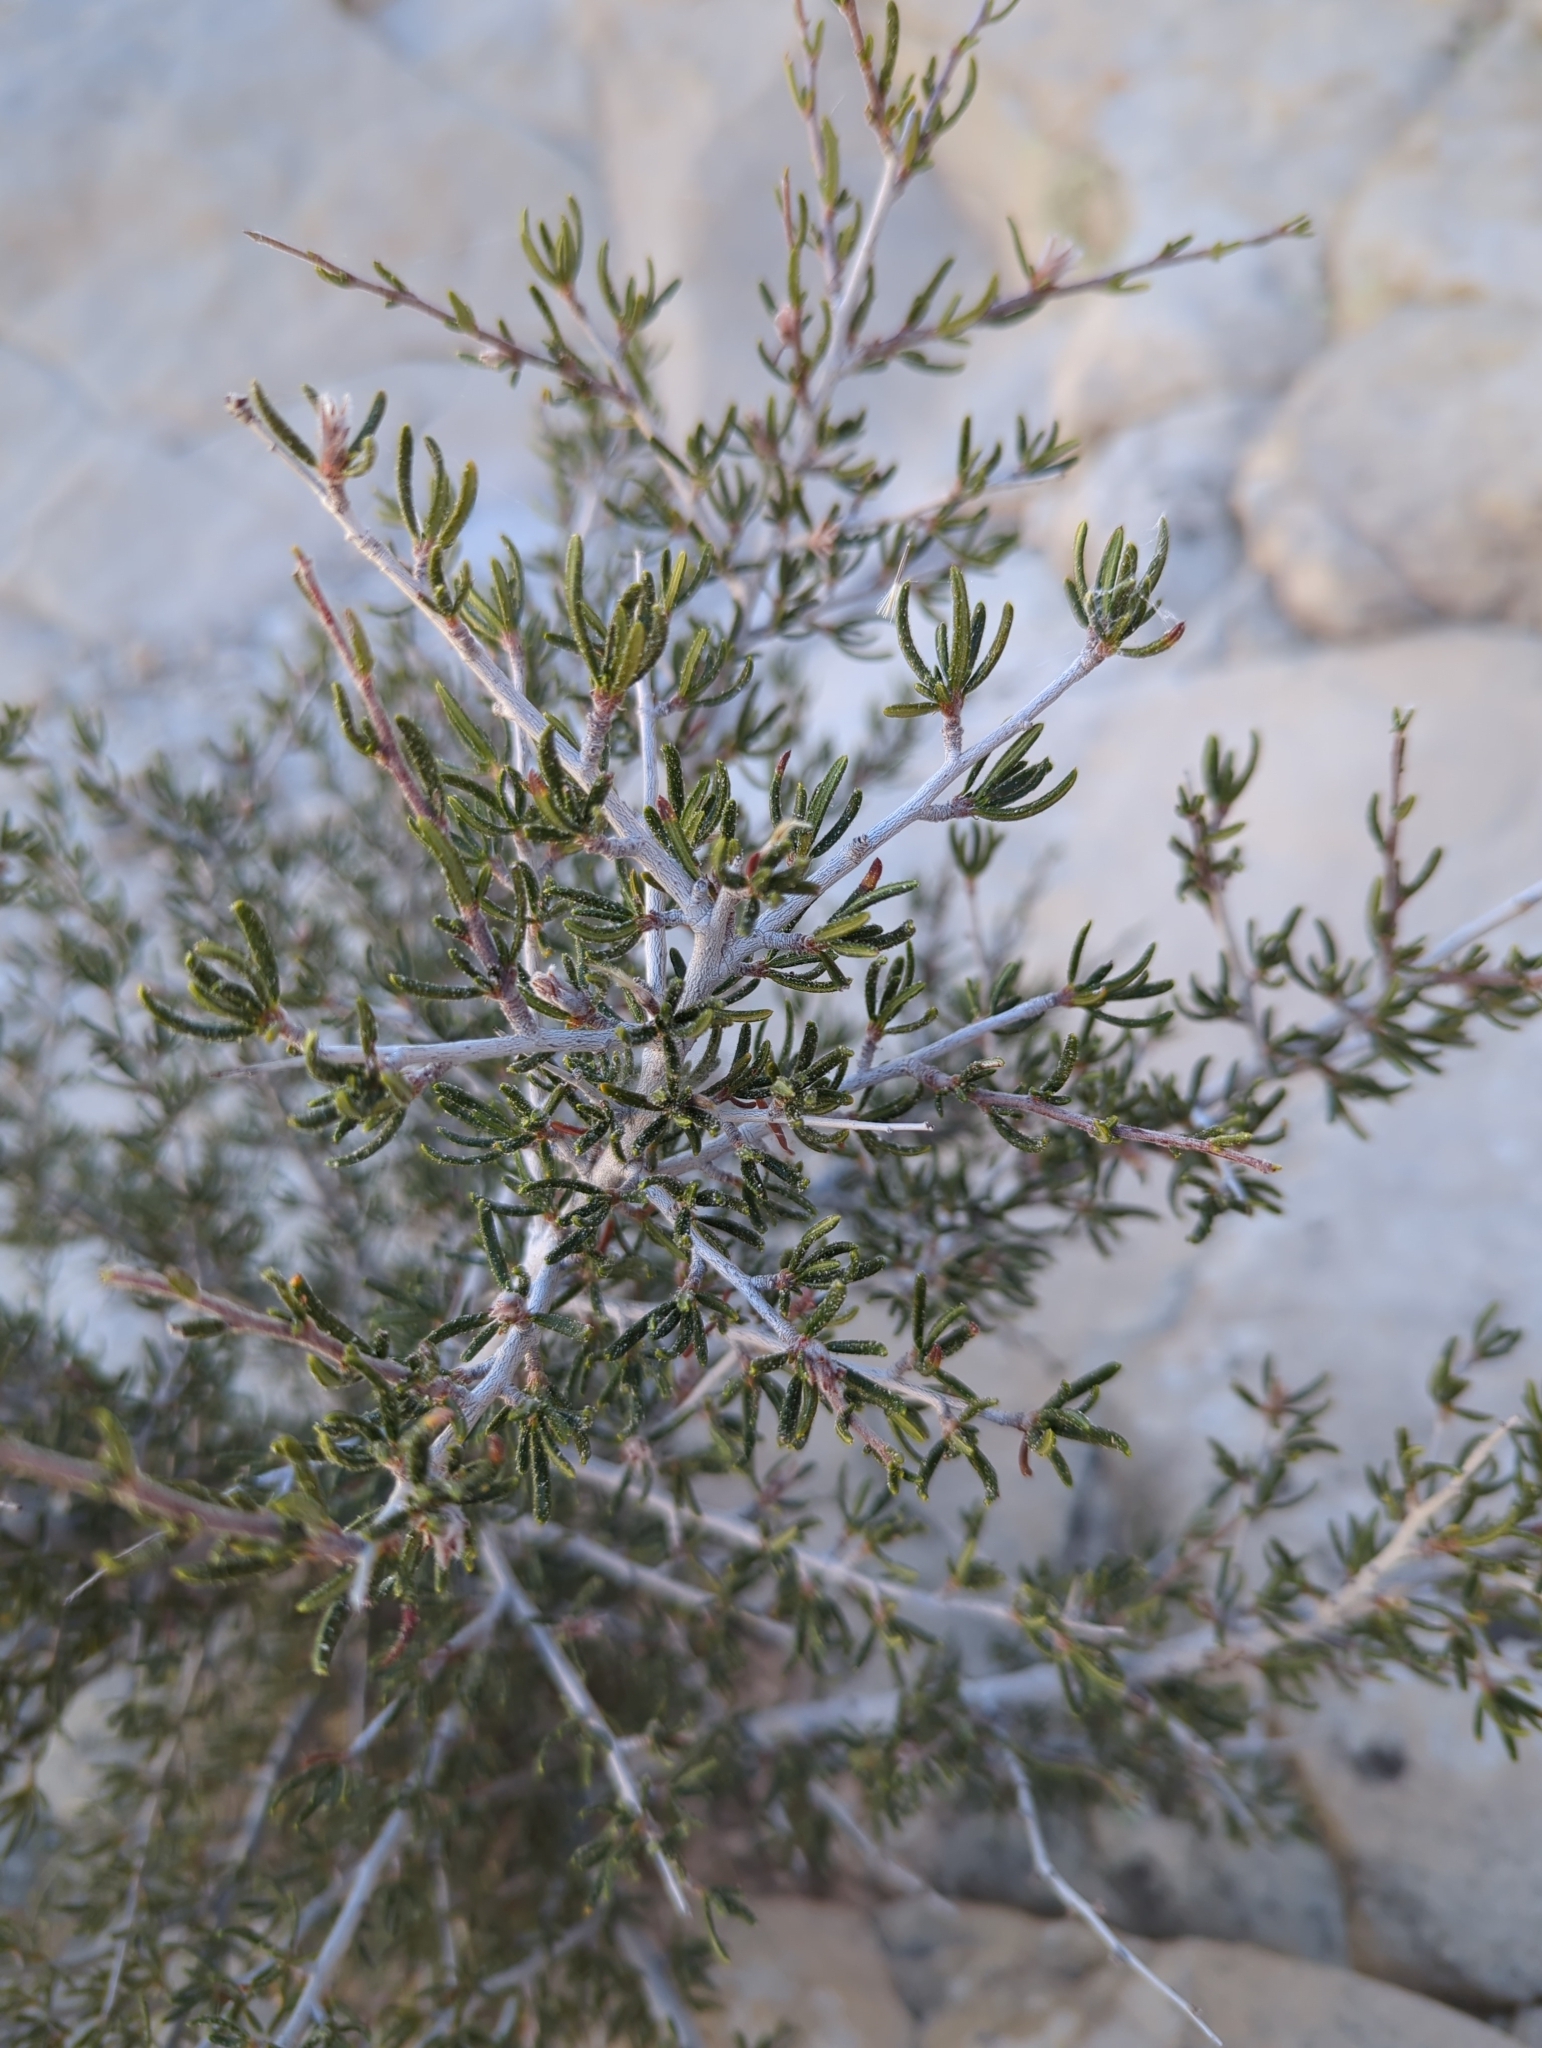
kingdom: Plantae
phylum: Tracheophyta
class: Magnoliopsida
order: Rosales
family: Rosaceae
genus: Cercocarpus
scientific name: Cercocarpus intricatus
